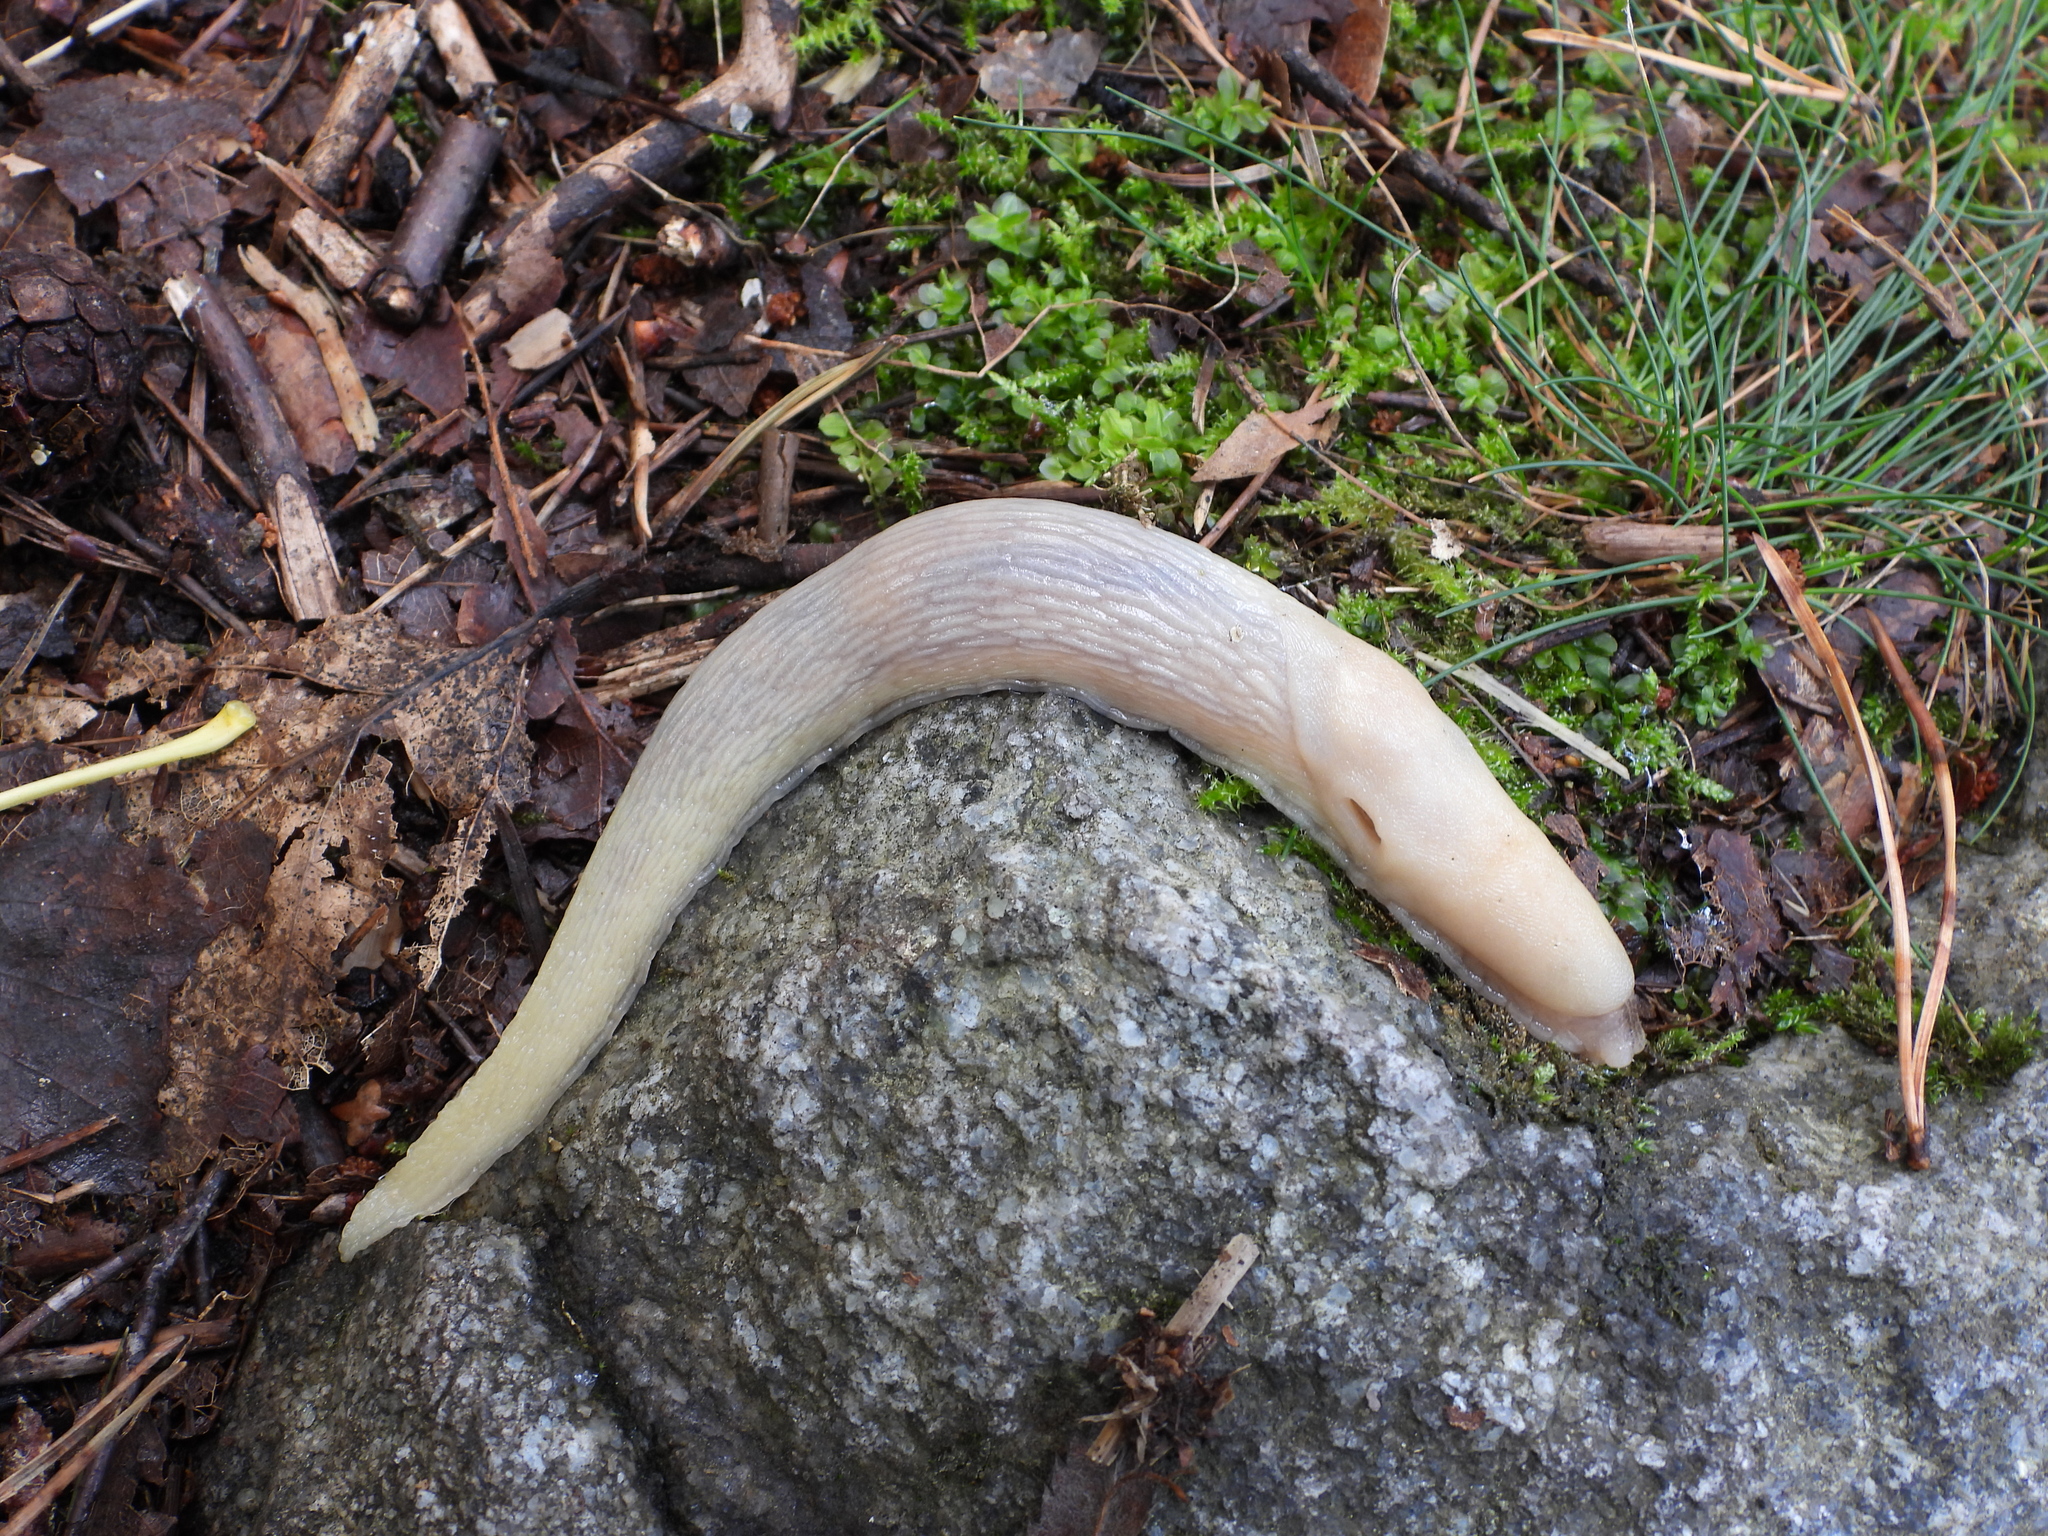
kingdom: Animalia
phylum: Mollusca
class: Gastropoda
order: Stylommatophora
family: Limacidae
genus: Limax
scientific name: Limax cinereoniger
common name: Ash-black slug
